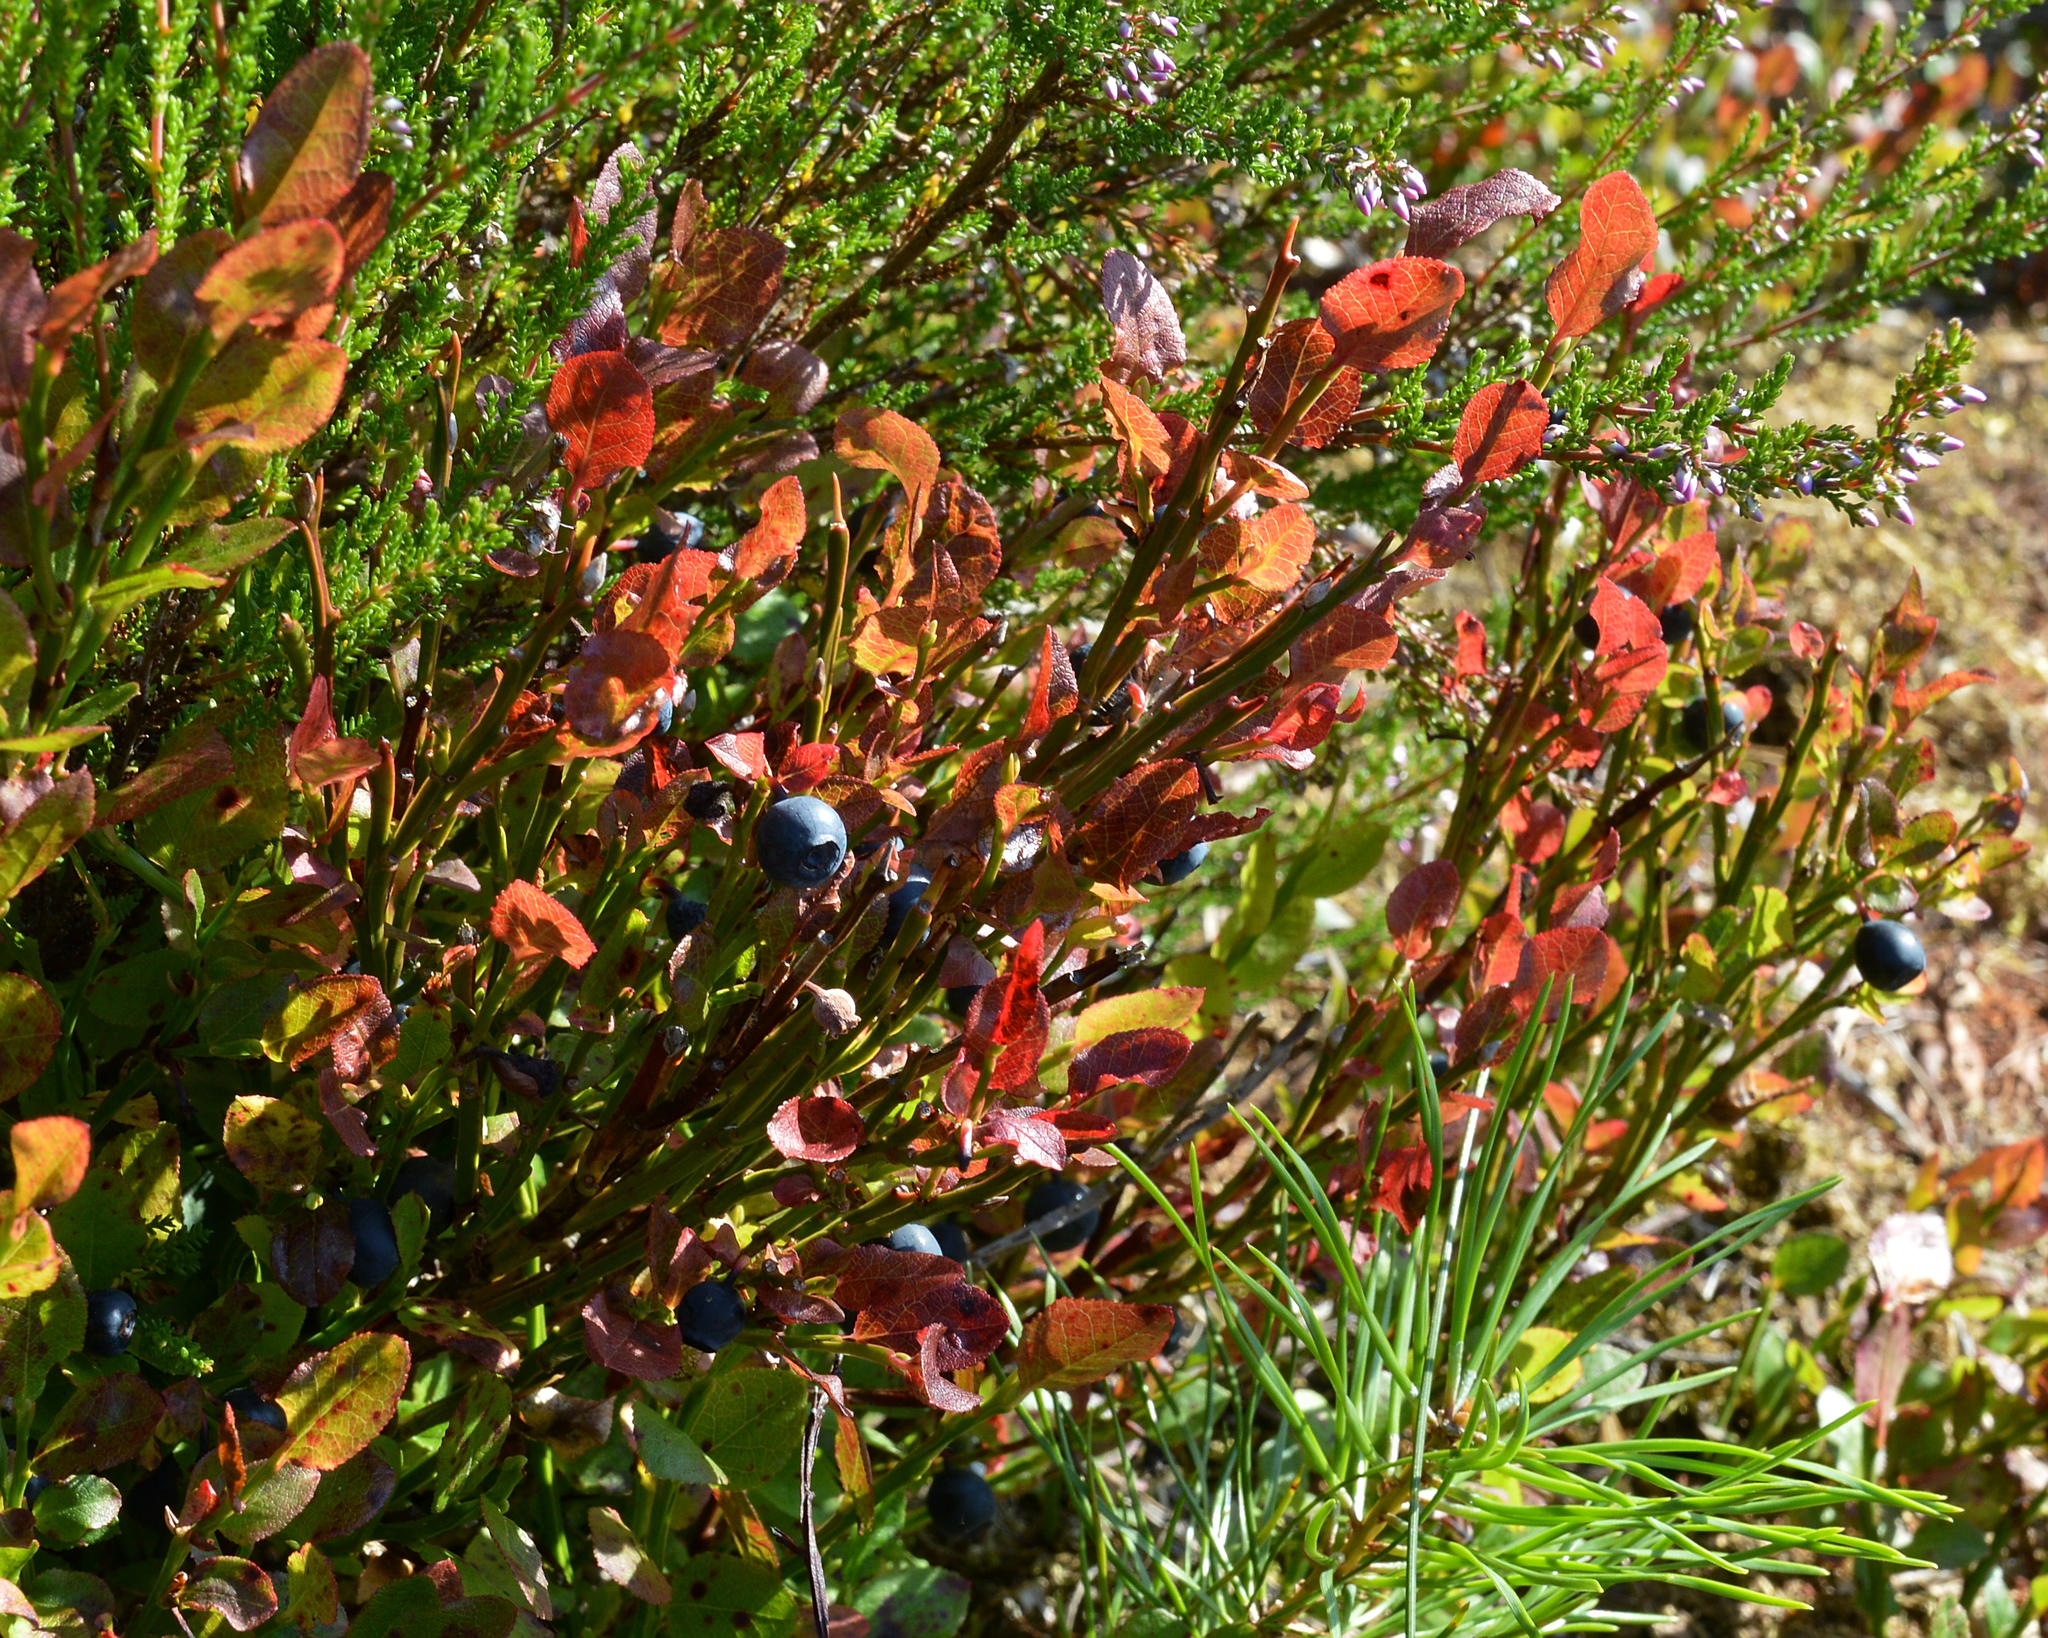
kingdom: Plantae
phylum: Tracheophyta
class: Magnoliopsida
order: Ericales
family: Ericaceae
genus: Vaccinium
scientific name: Vaccinium myrtillus
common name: Bilberry
